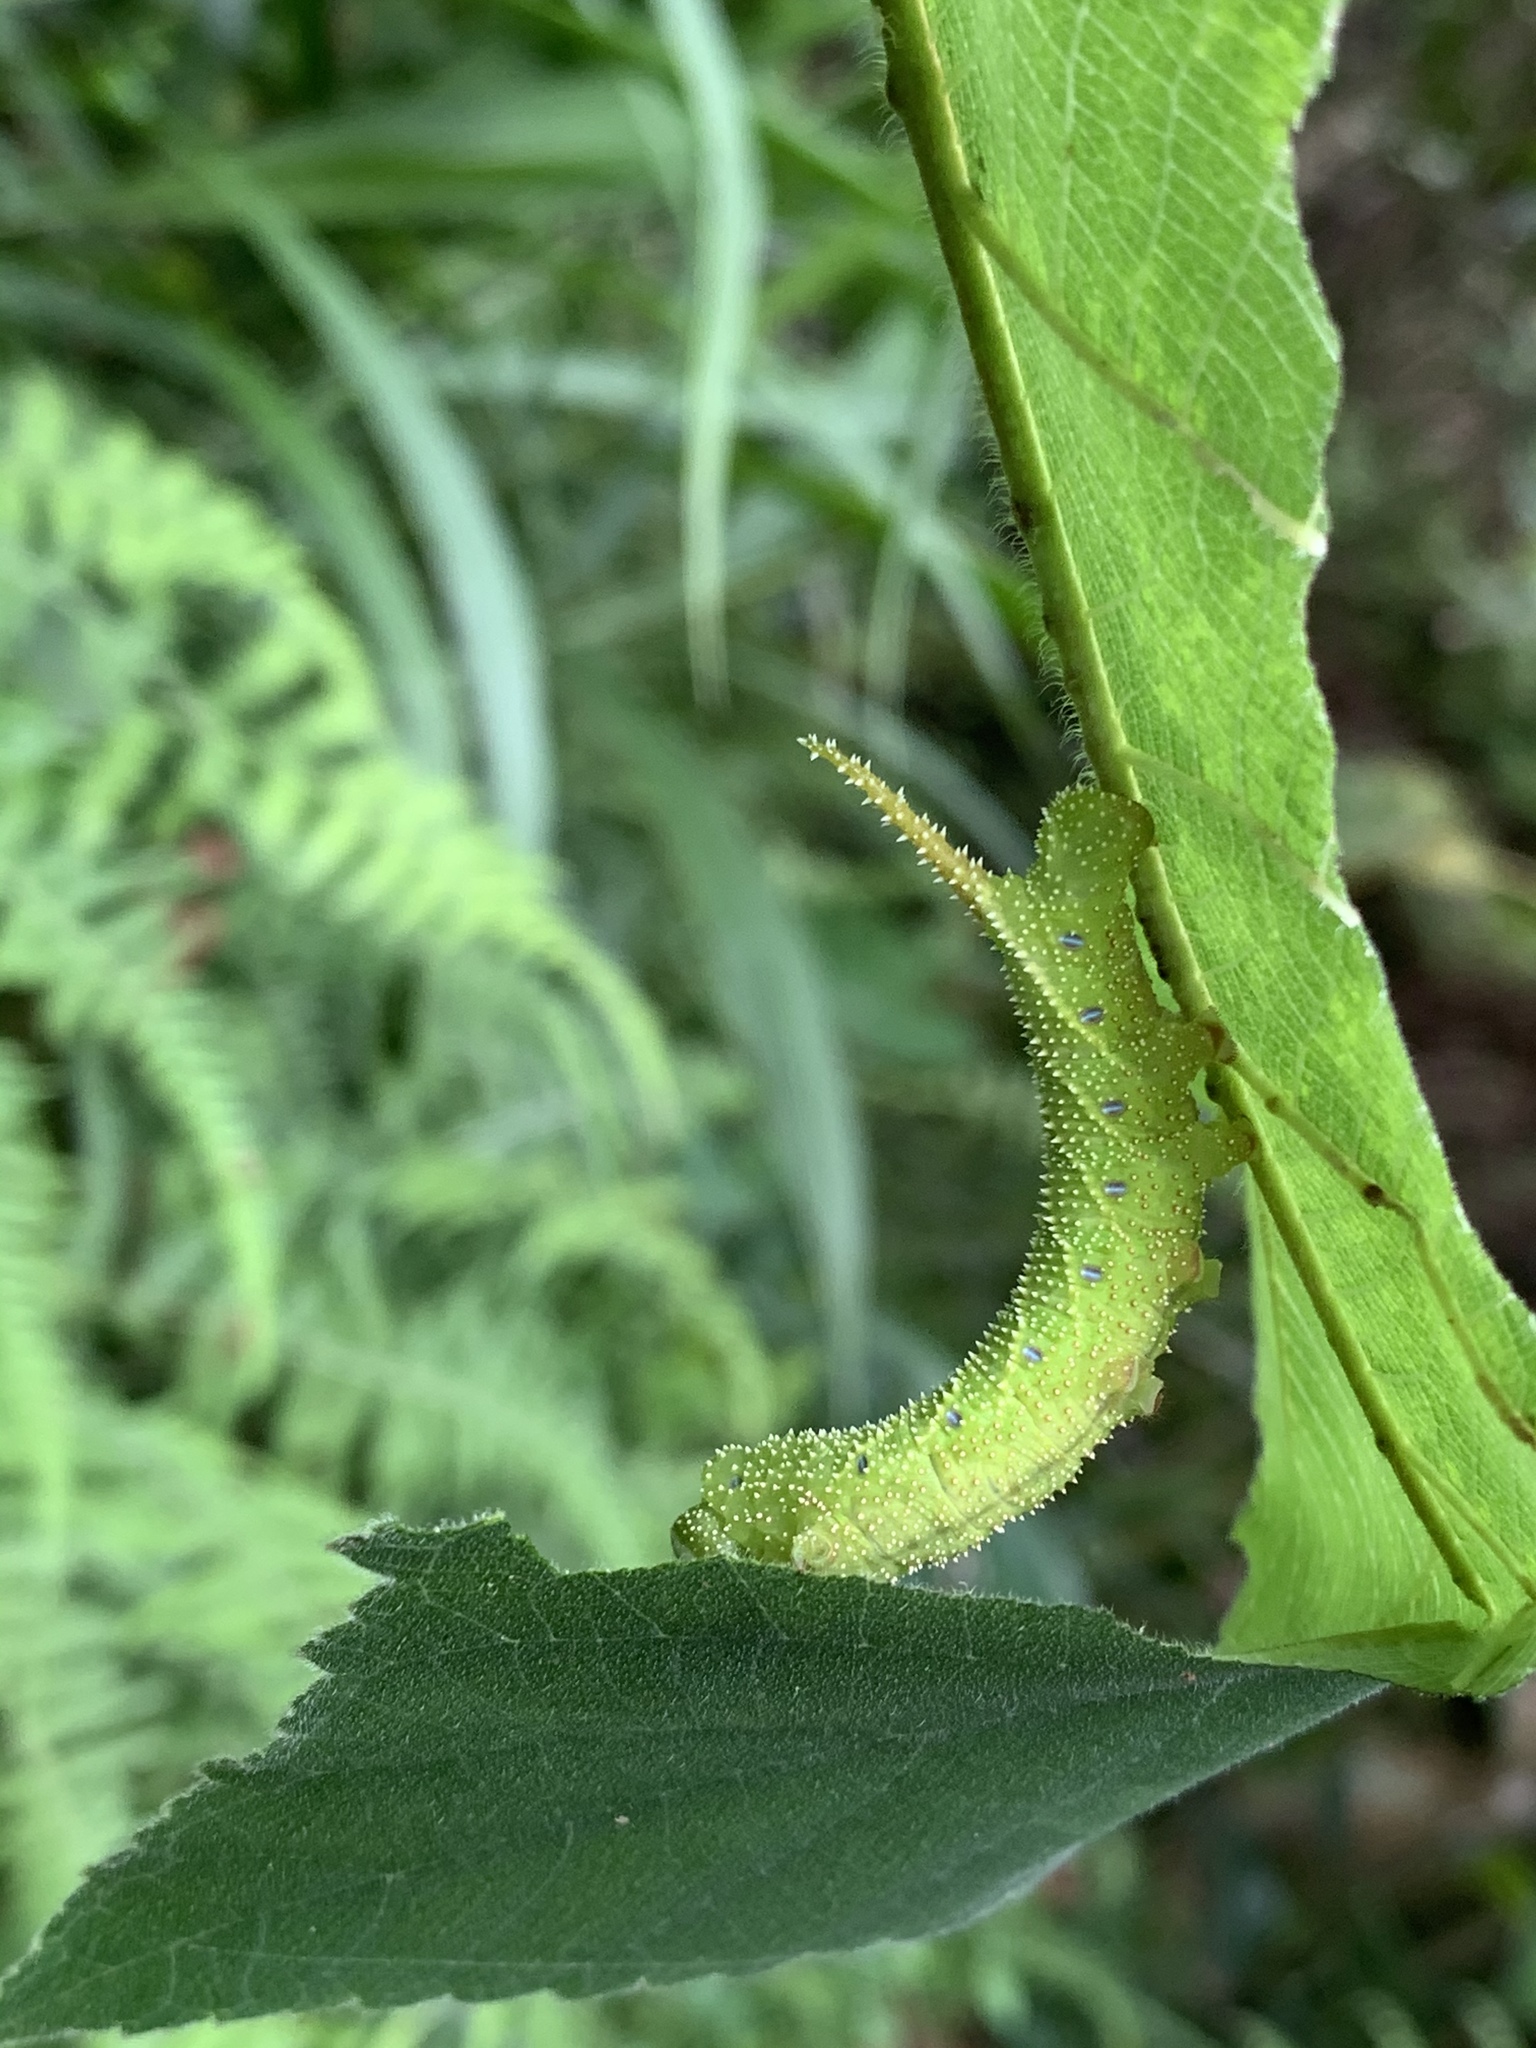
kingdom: Animalia
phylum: Arthropoda
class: Insecta
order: Lepidoptera
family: Sphingidae
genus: Parum
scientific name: Parum colligata
